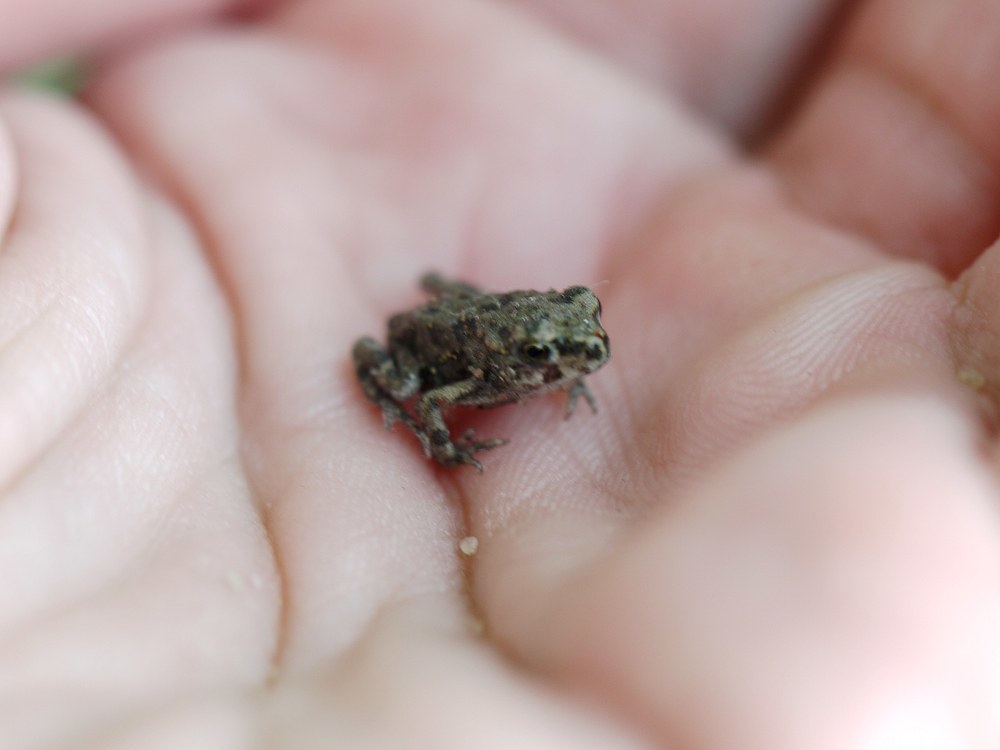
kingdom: Animalia
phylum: Chordata
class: Amphibia
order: Anura
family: Bufonidae
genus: Bufotes
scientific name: Bufotes viridis
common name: European green toad
